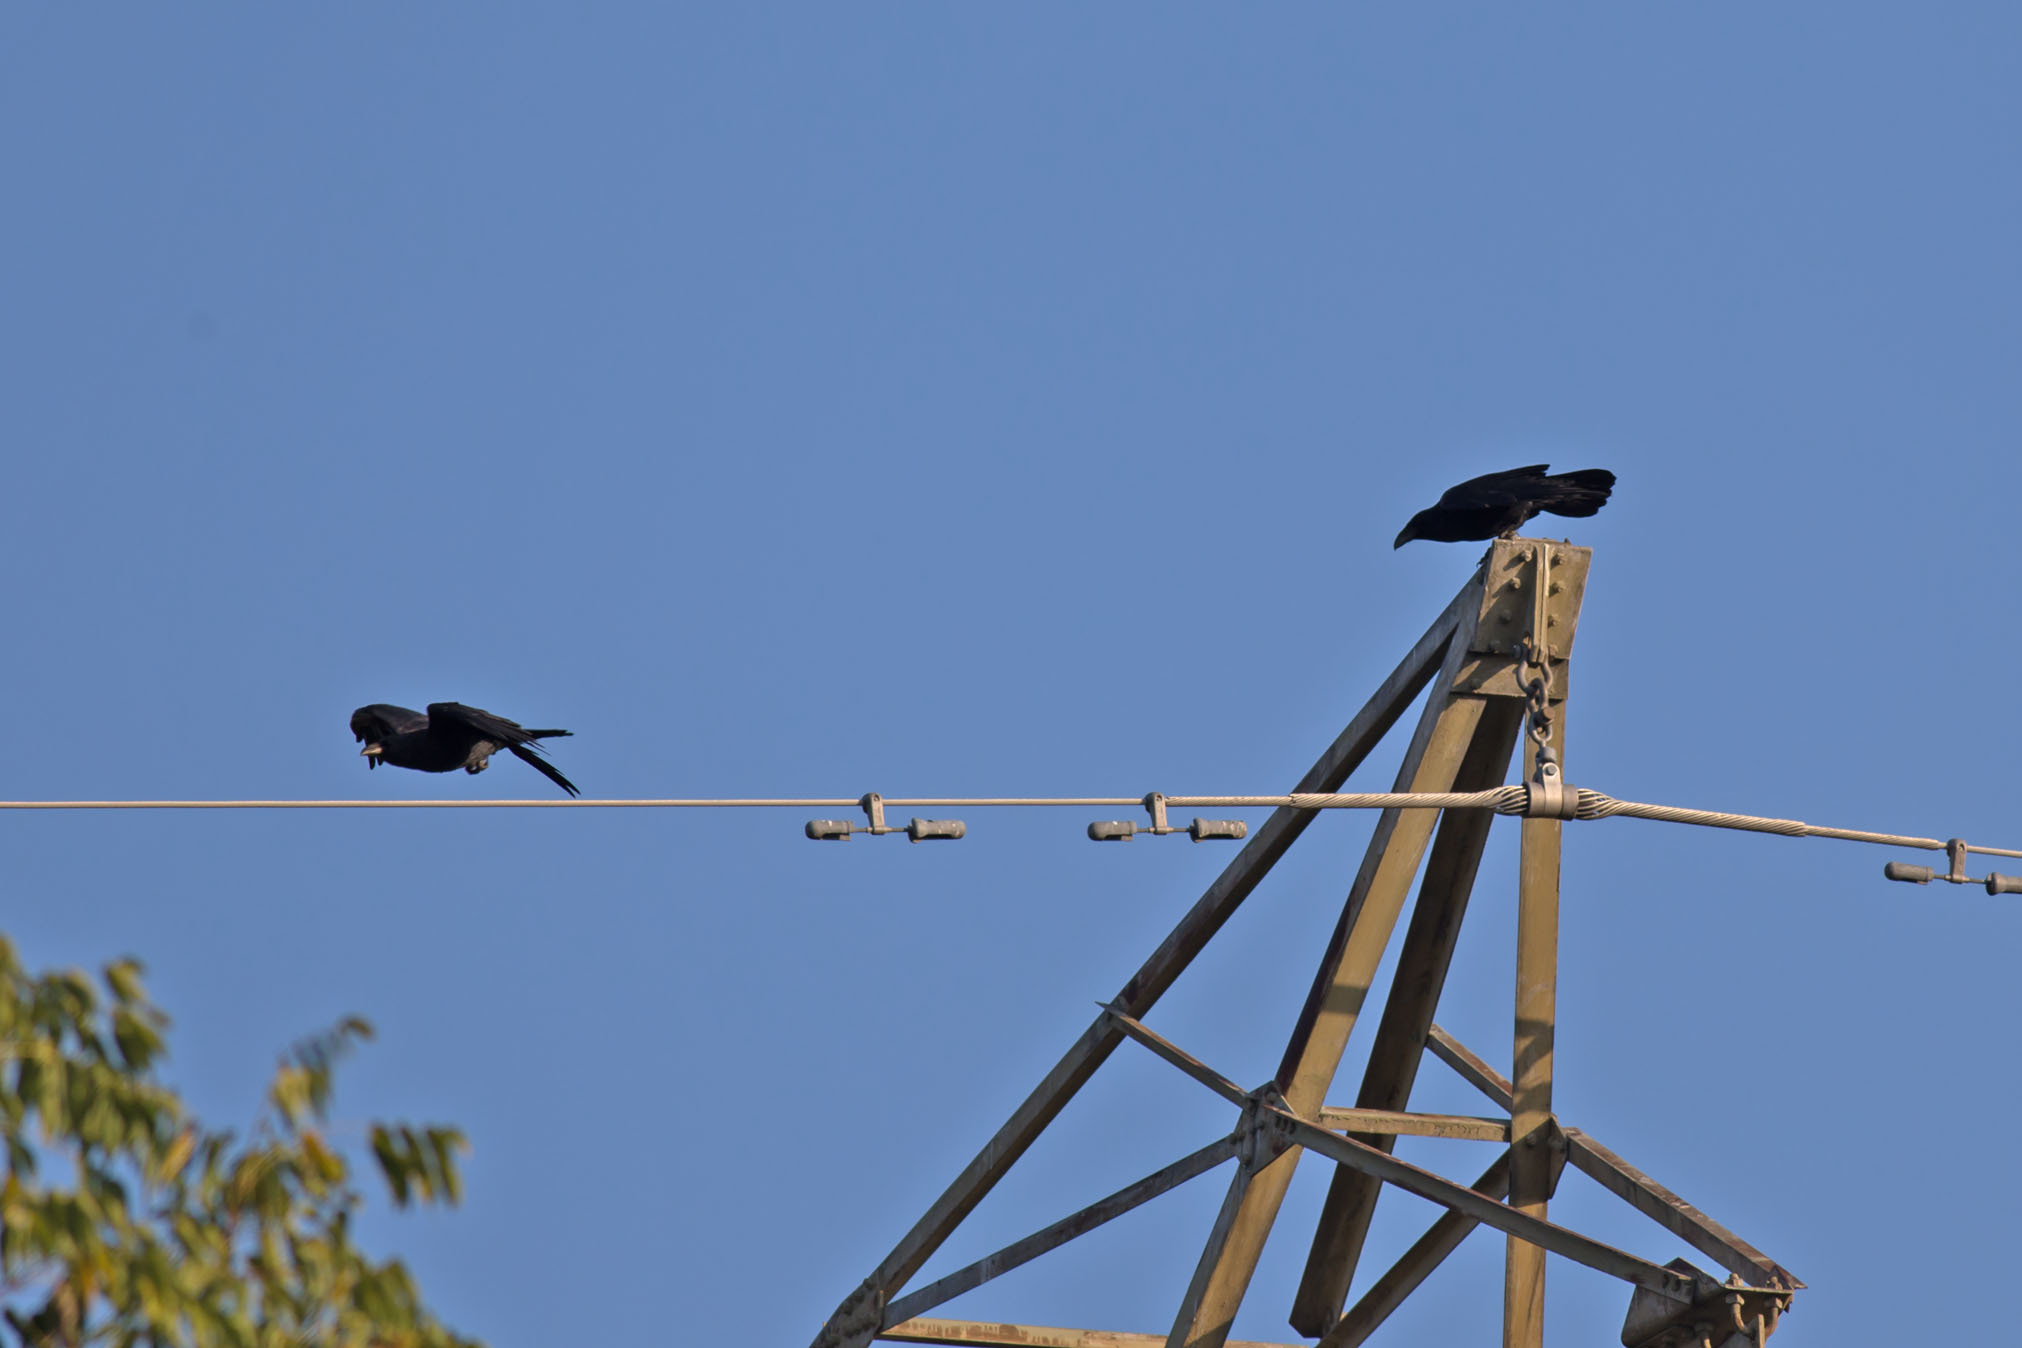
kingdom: Animalia
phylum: Chordata
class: Aves
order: Passeriformes
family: Corvidae
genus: Corvus
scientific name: Corvus corax
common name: Common raven
